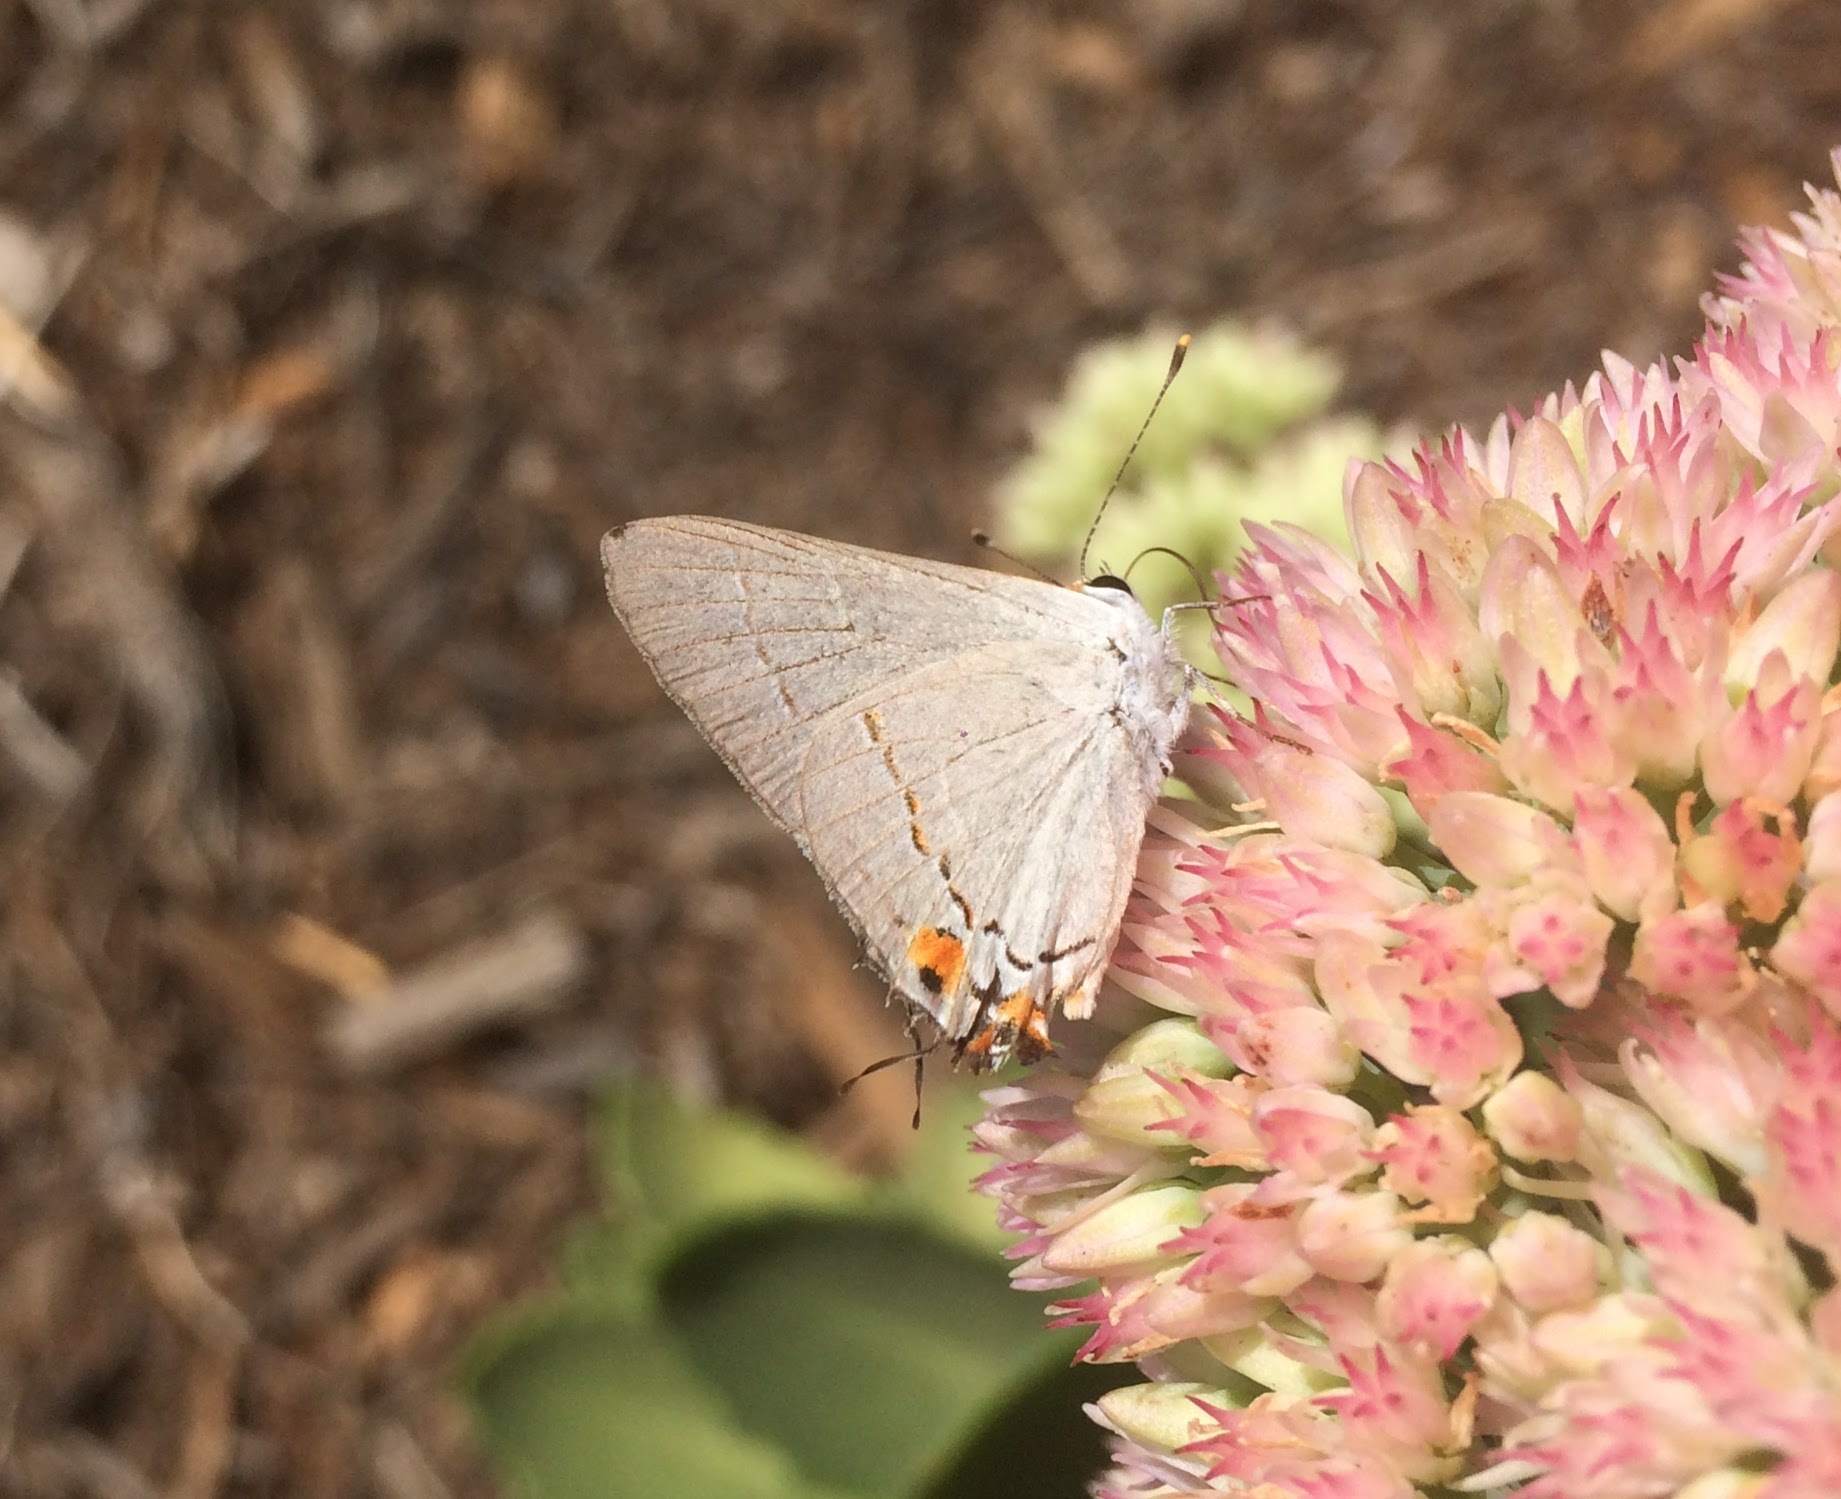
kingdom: Animalia
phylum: Arthropoda
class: Insecta
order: Lepidoptera
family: Lycaenidae
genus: Strymon
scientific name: Strymon melinus
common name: Gray hairstreak
